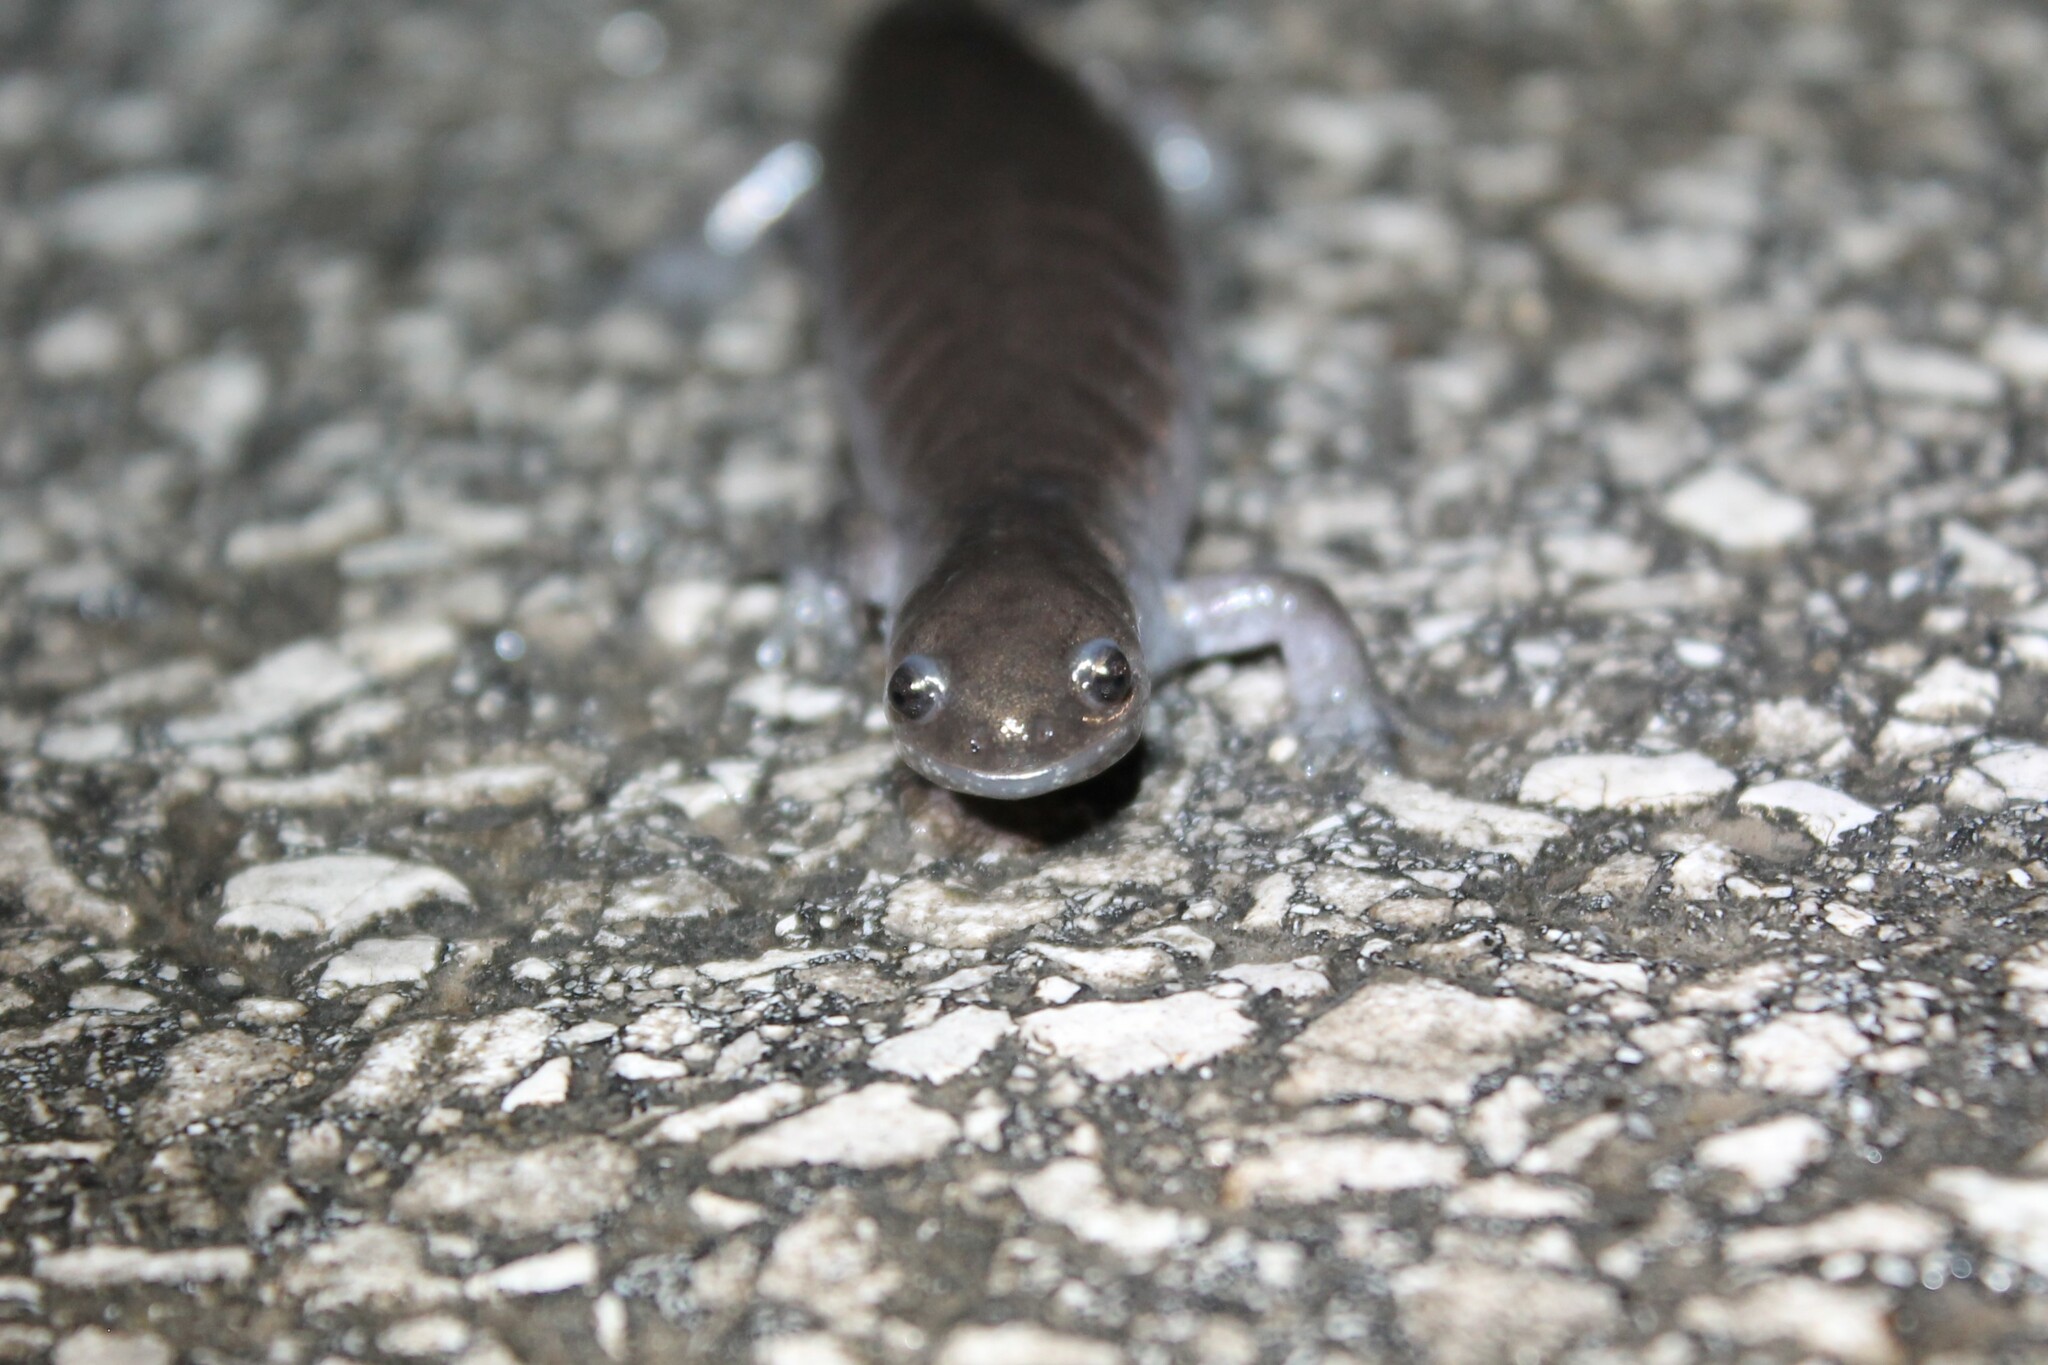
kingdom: Animalia
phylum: Chordata
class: Amphibia
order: Caudata
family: Ambystomatidae
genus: Ambystoma
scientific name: Ambystoma texanum
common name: Small-mouth salamander
